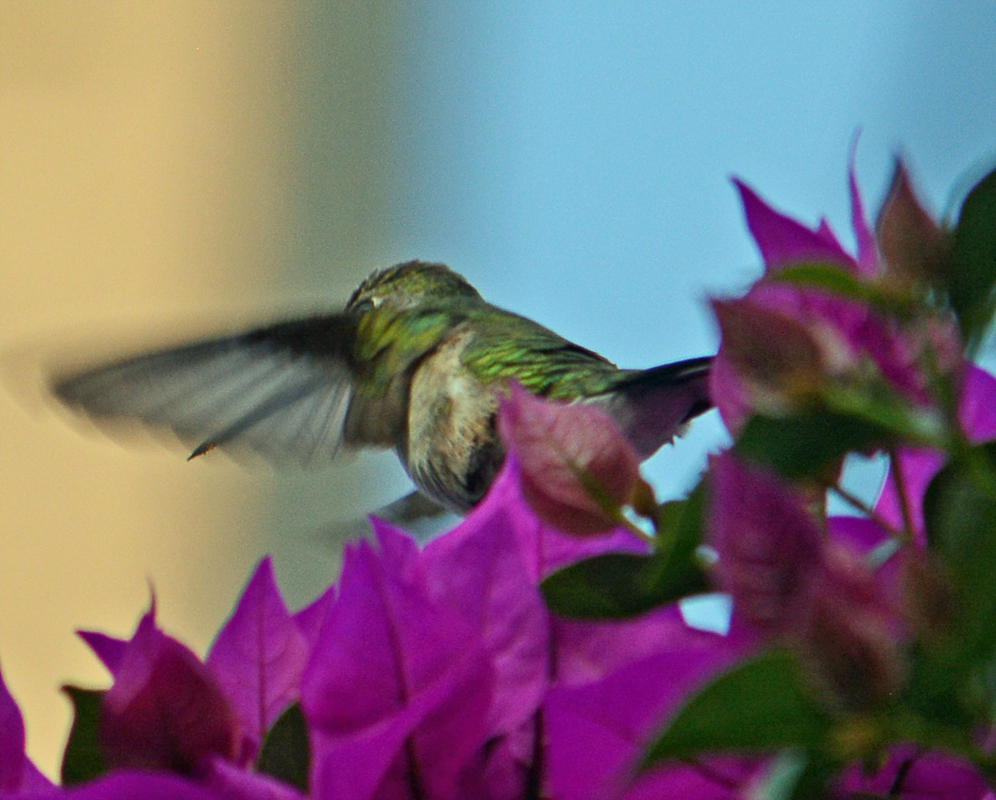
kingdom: Animalia
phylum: Chordata
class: Aves
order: Apodiformes
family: Trochilidae
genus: Cynanthus
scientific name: Cynanthus latirostris
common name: Broad-billed hummingbird
